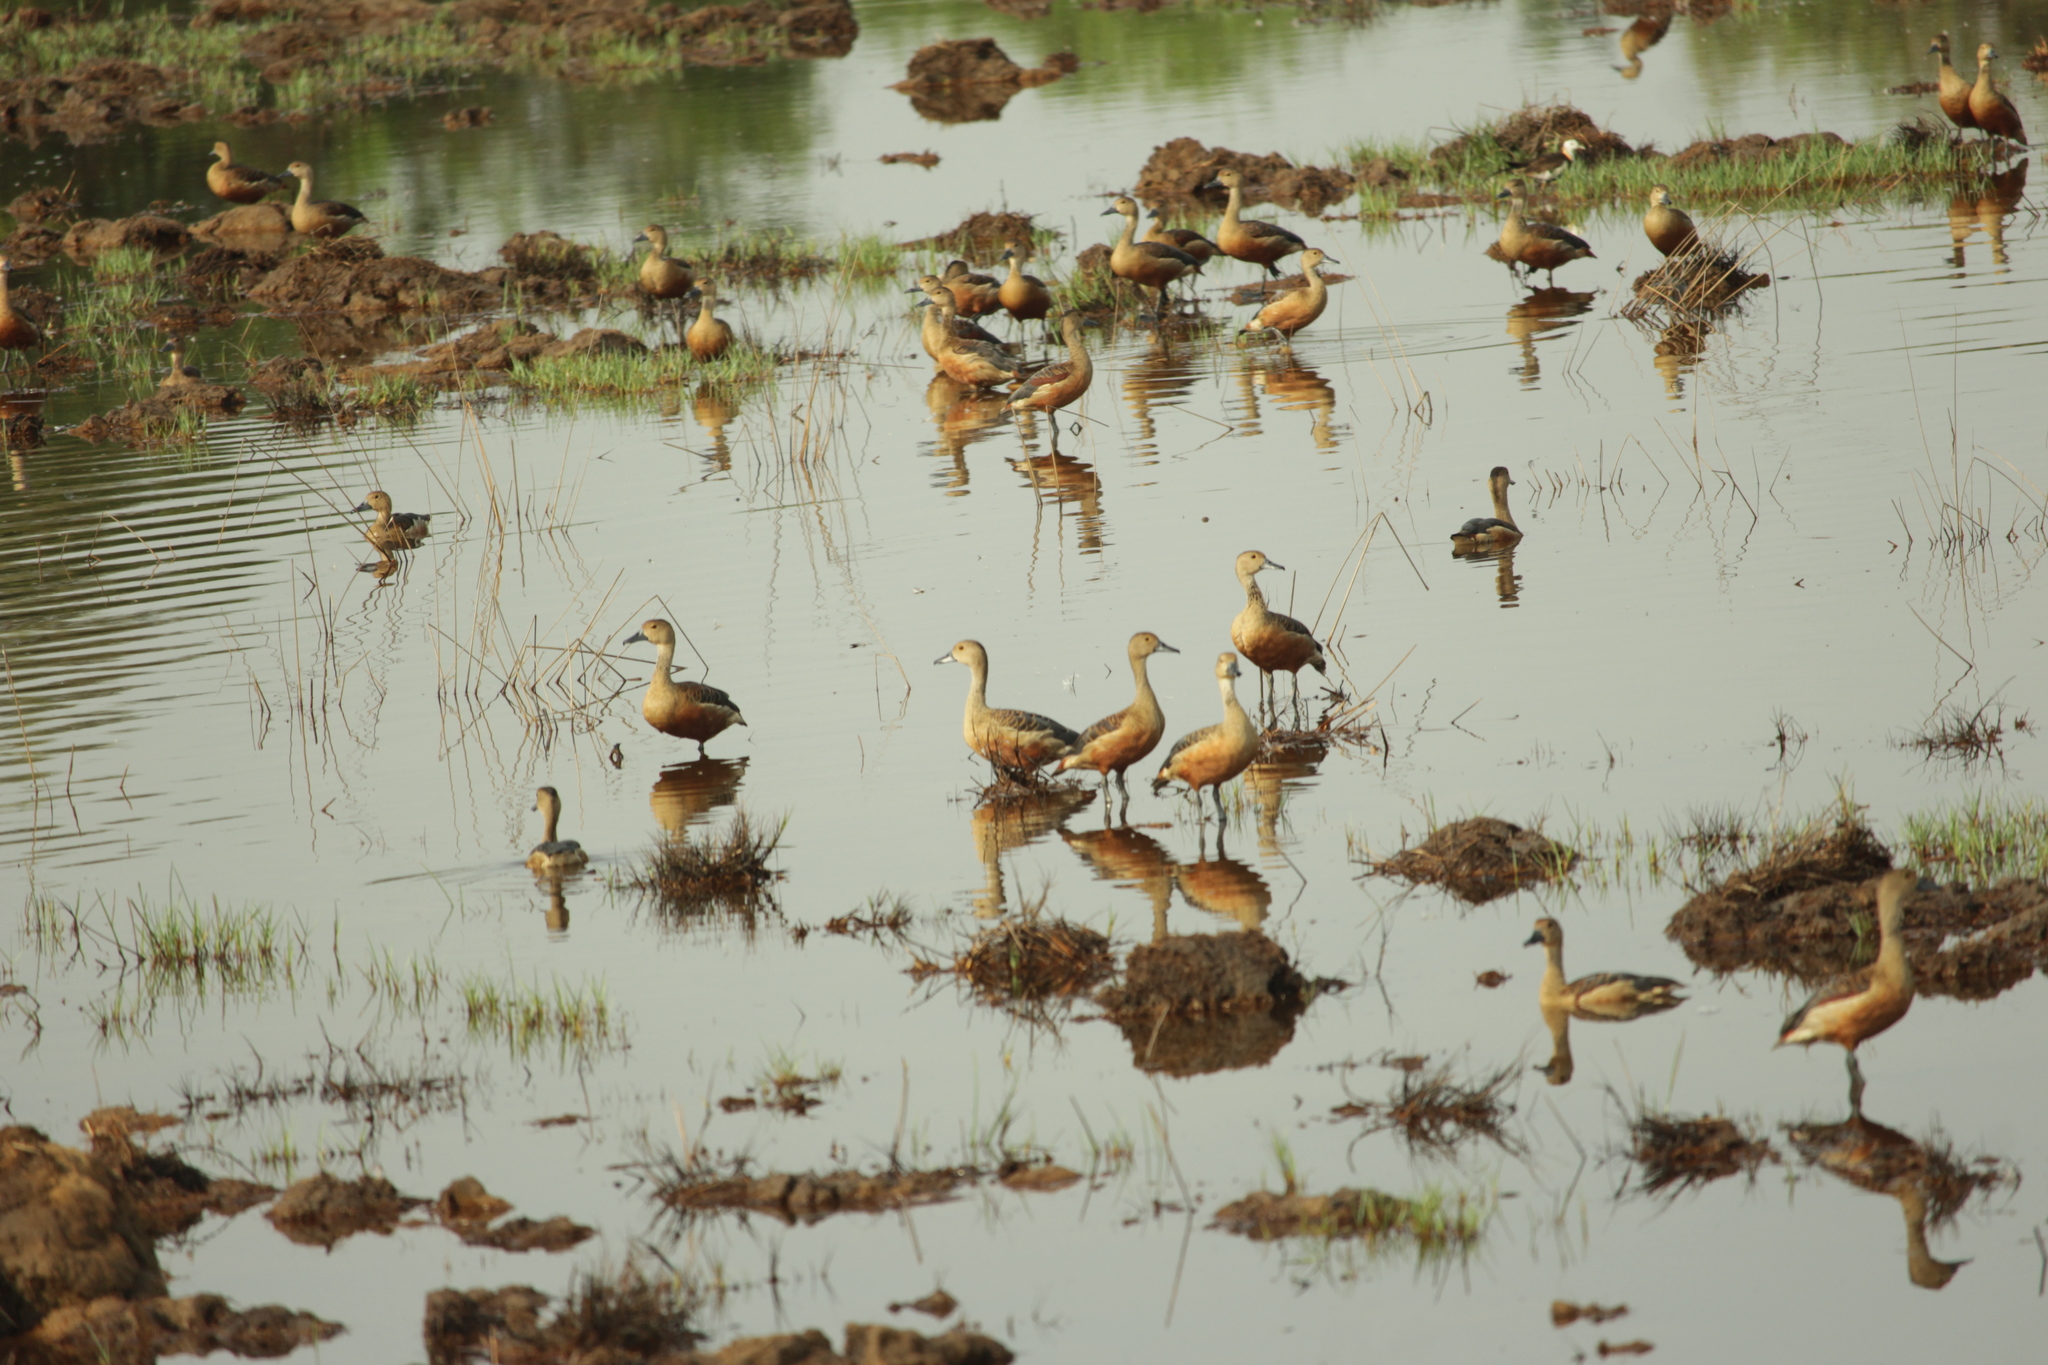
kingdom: Animalia
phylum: Chordata
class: Aves
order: Anseriformes
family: Anatidae
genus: Dendrocygna
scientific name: Dendrocygna javanica
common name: Lesser whistling-duck
